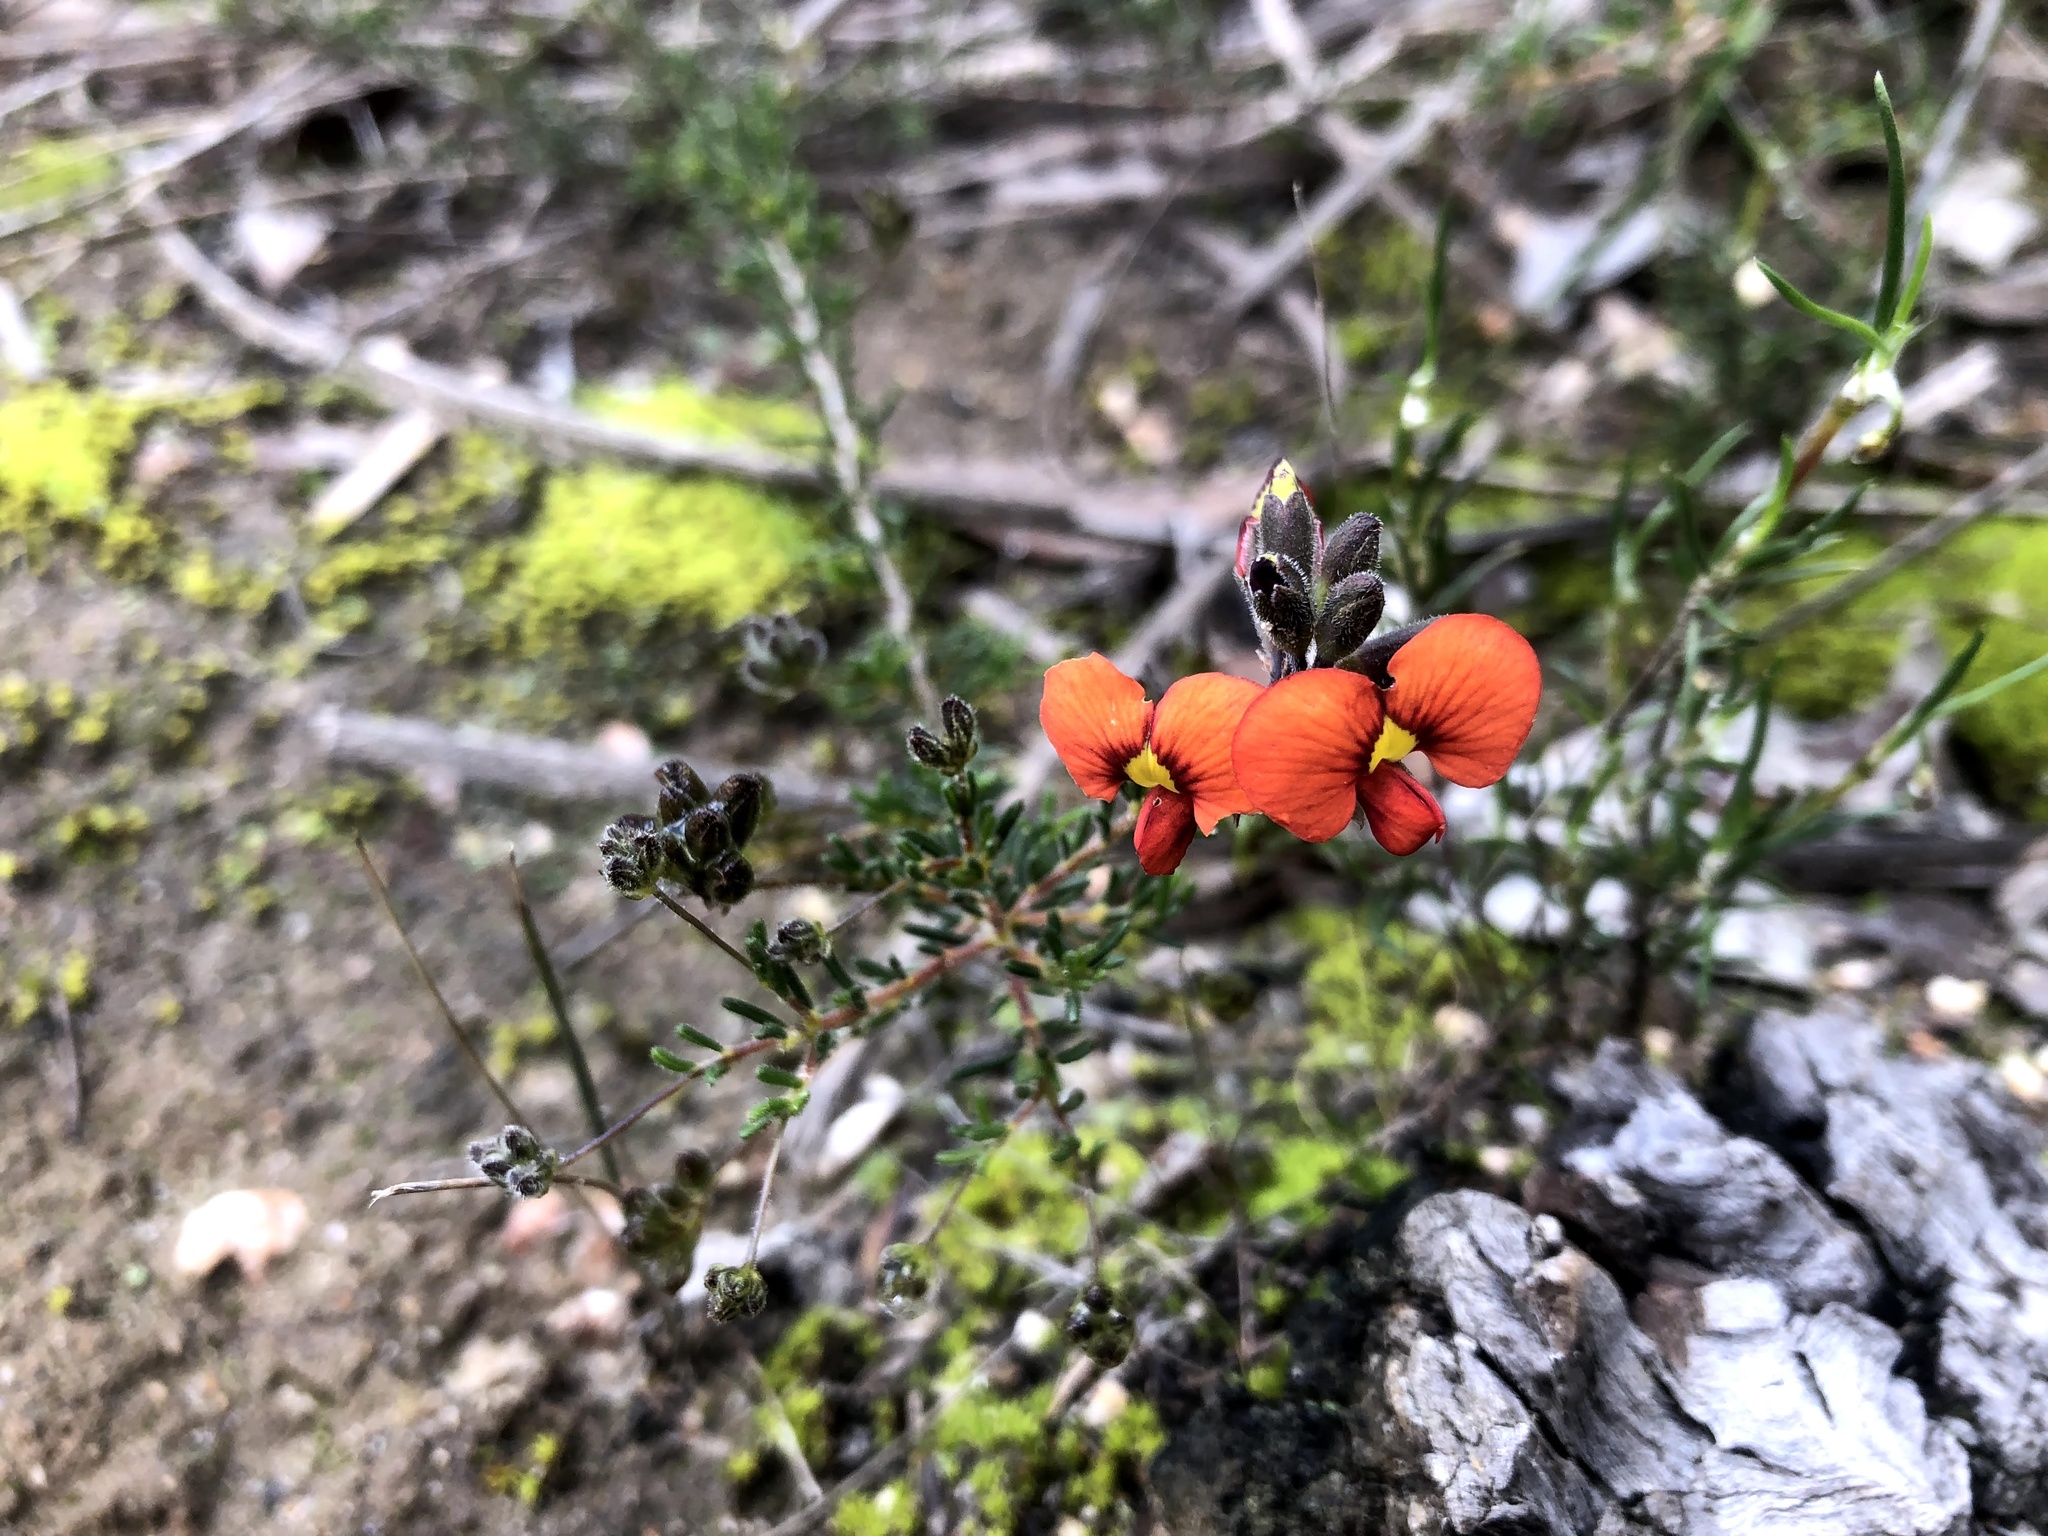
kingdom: Plantae
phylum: Tracheophyta
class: Magnoliopsida
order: Fabales
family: Fabaceae
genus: Dillwynia
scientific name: Dillwynia hispida
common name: Red parrot-pea
